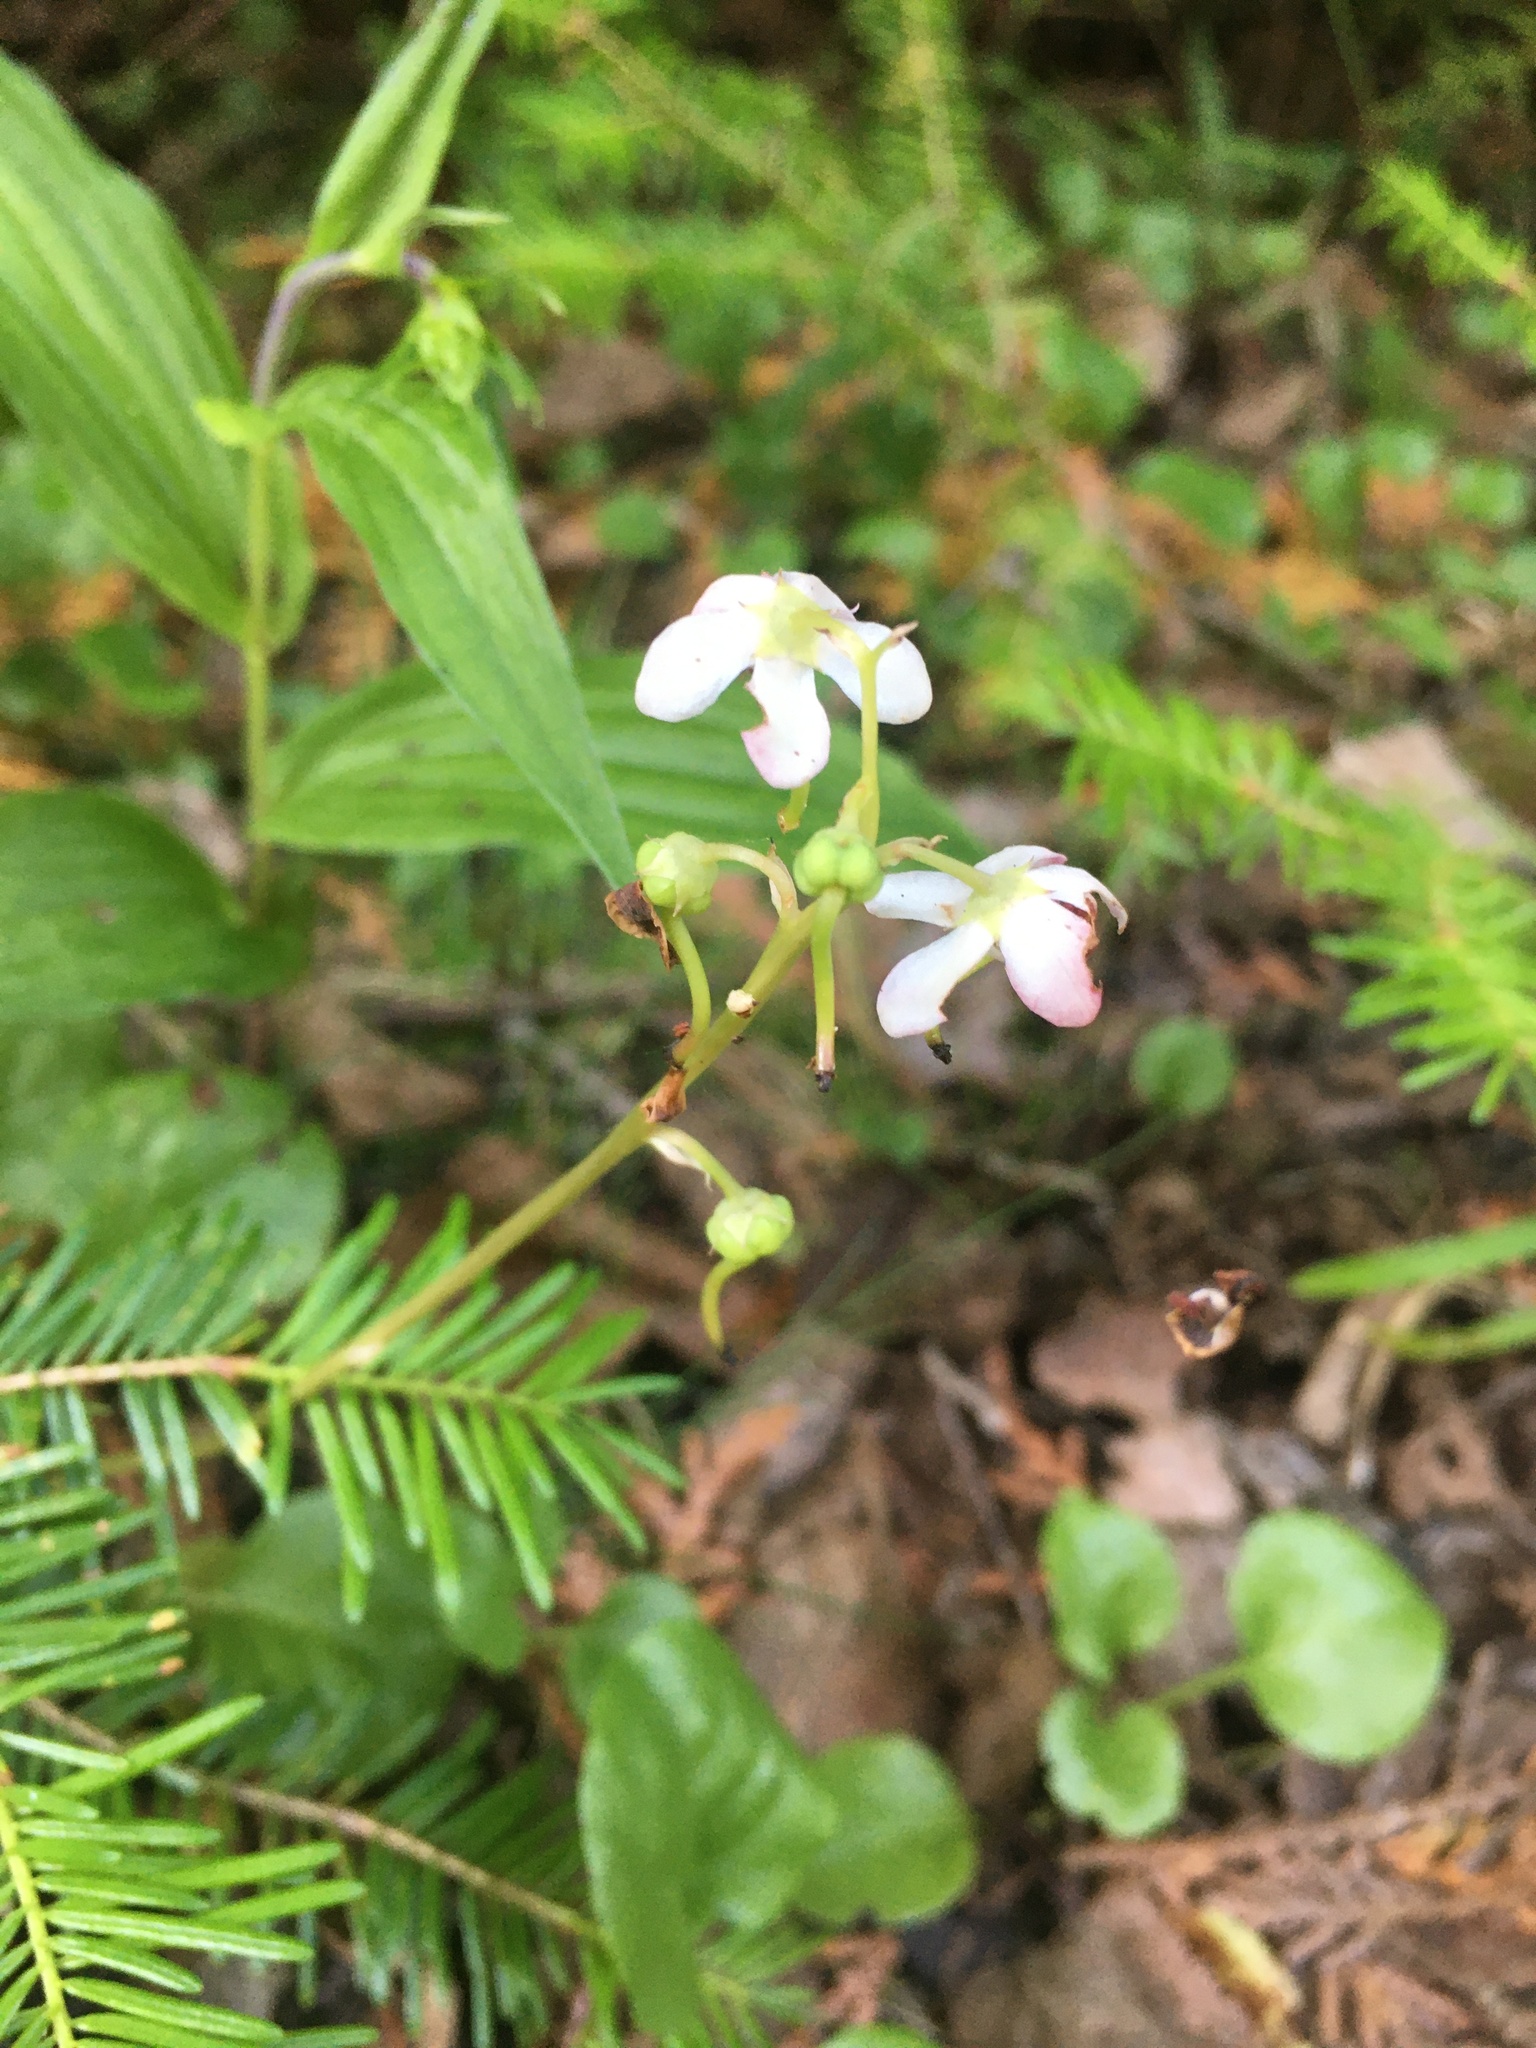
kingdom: Plantae
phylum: Tracheophyta
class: Magnoliopsida
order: Ericales
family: Ericaceae
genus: Pyrola
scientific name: Pyrola elliptica
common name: Shinleaf
